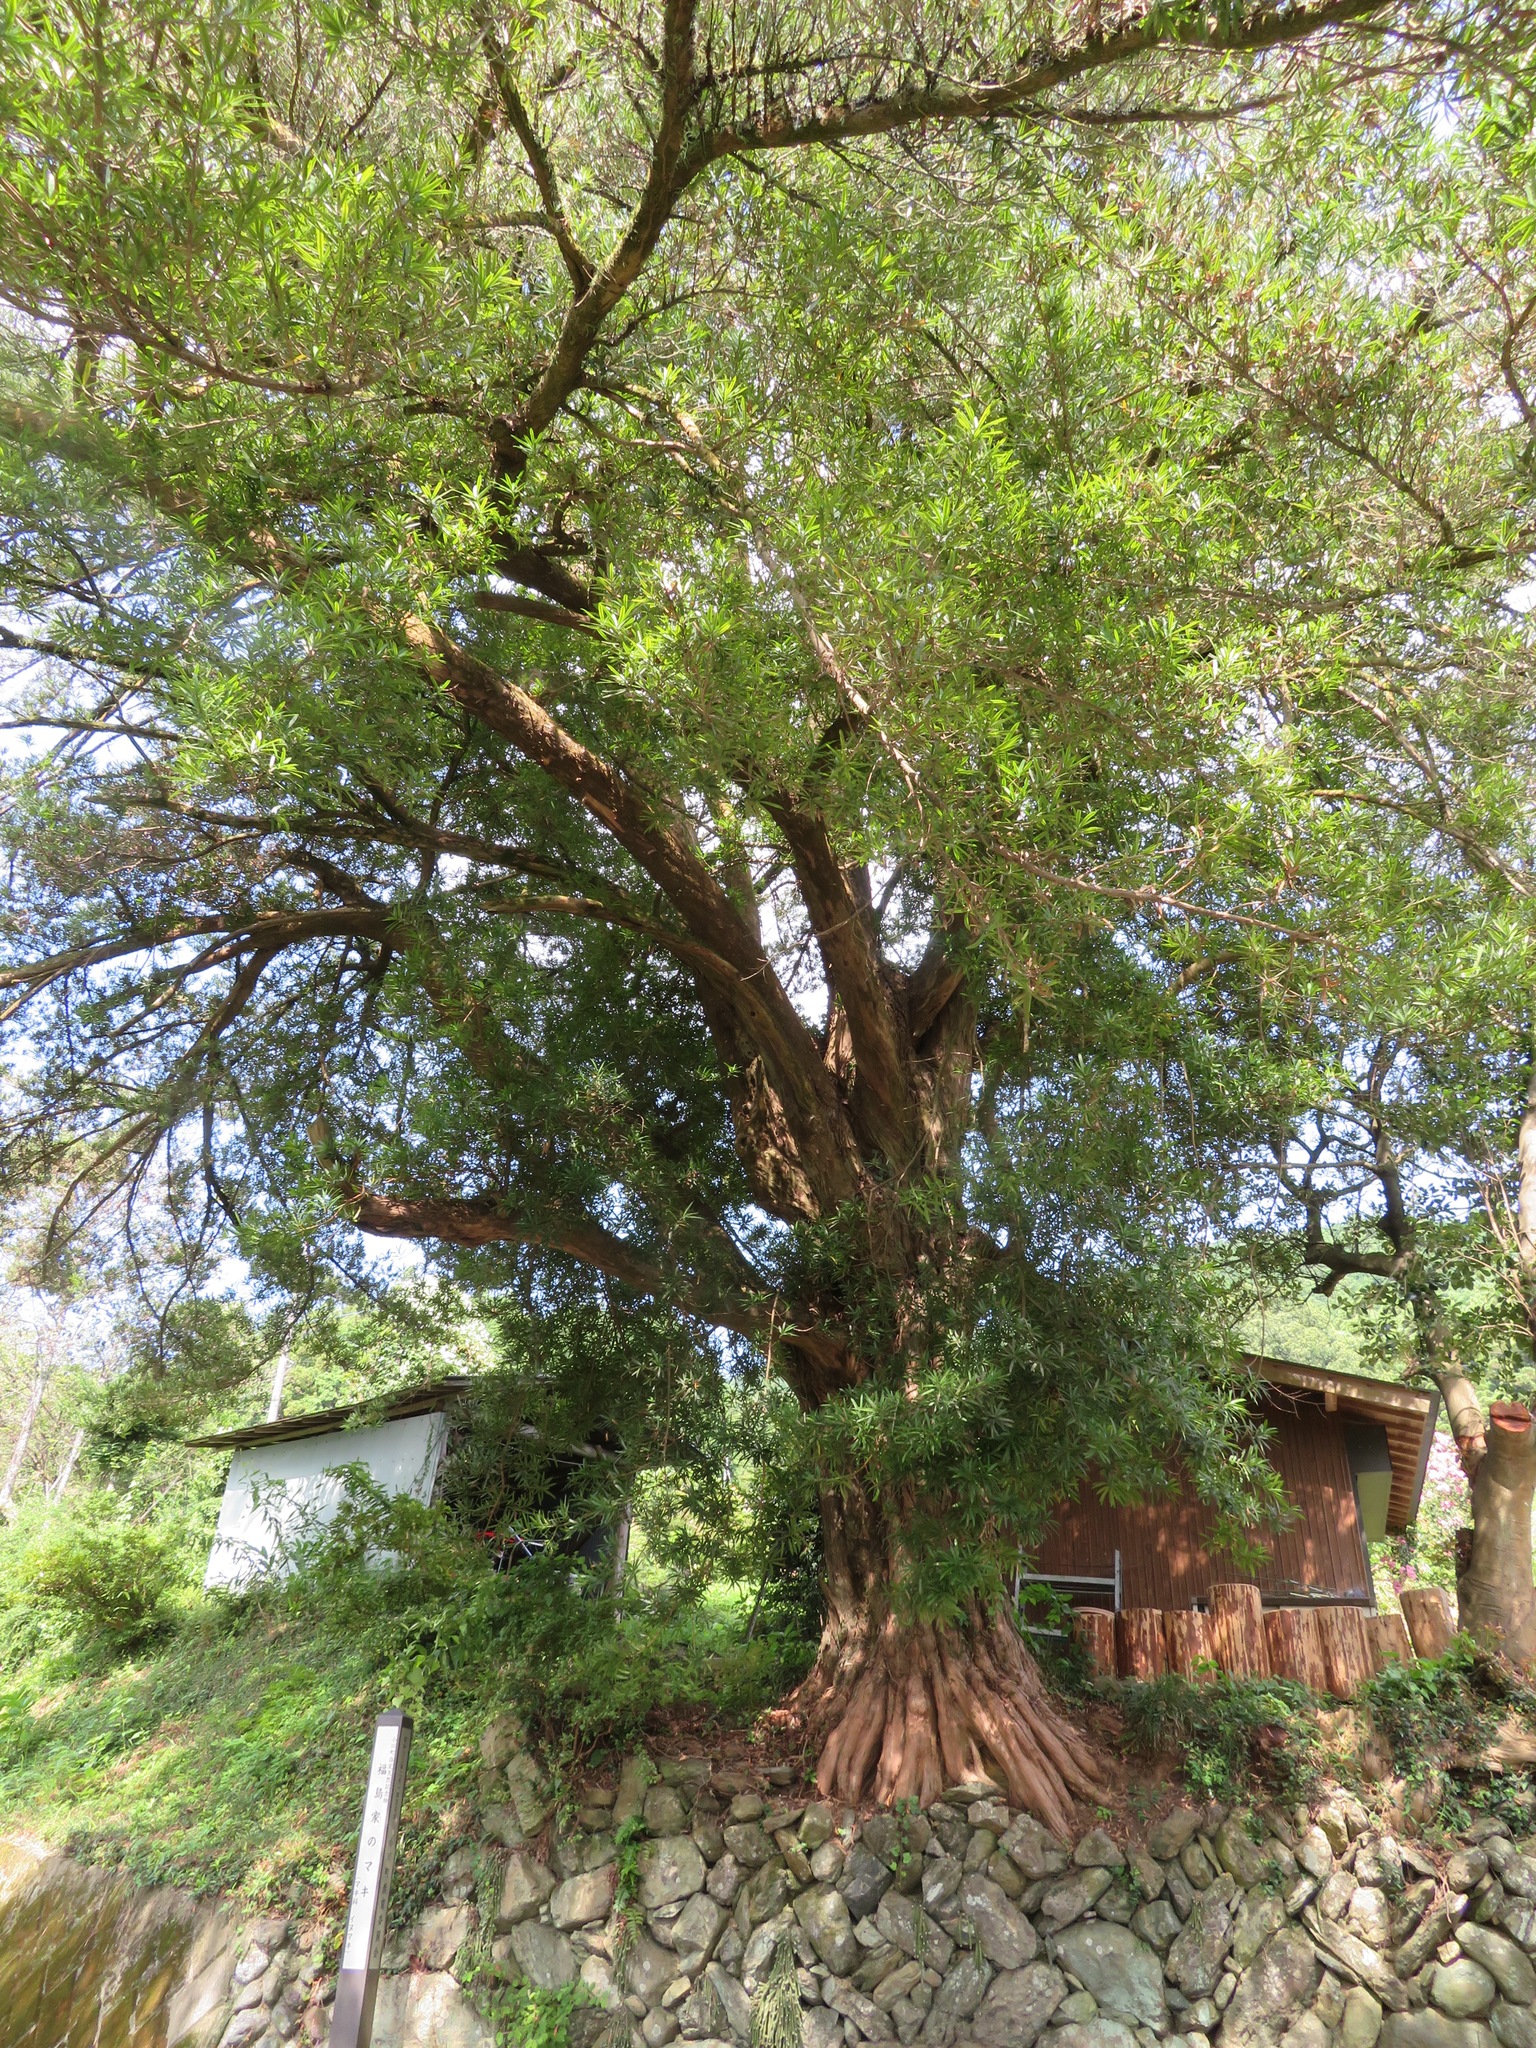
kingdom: Plantae
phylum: Tracheophyta
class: Pinopsida
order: Pinales
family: Podocarpaceae
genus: Podocarpus
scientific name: Podocarpus macrophyllus
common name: Japanese yew
